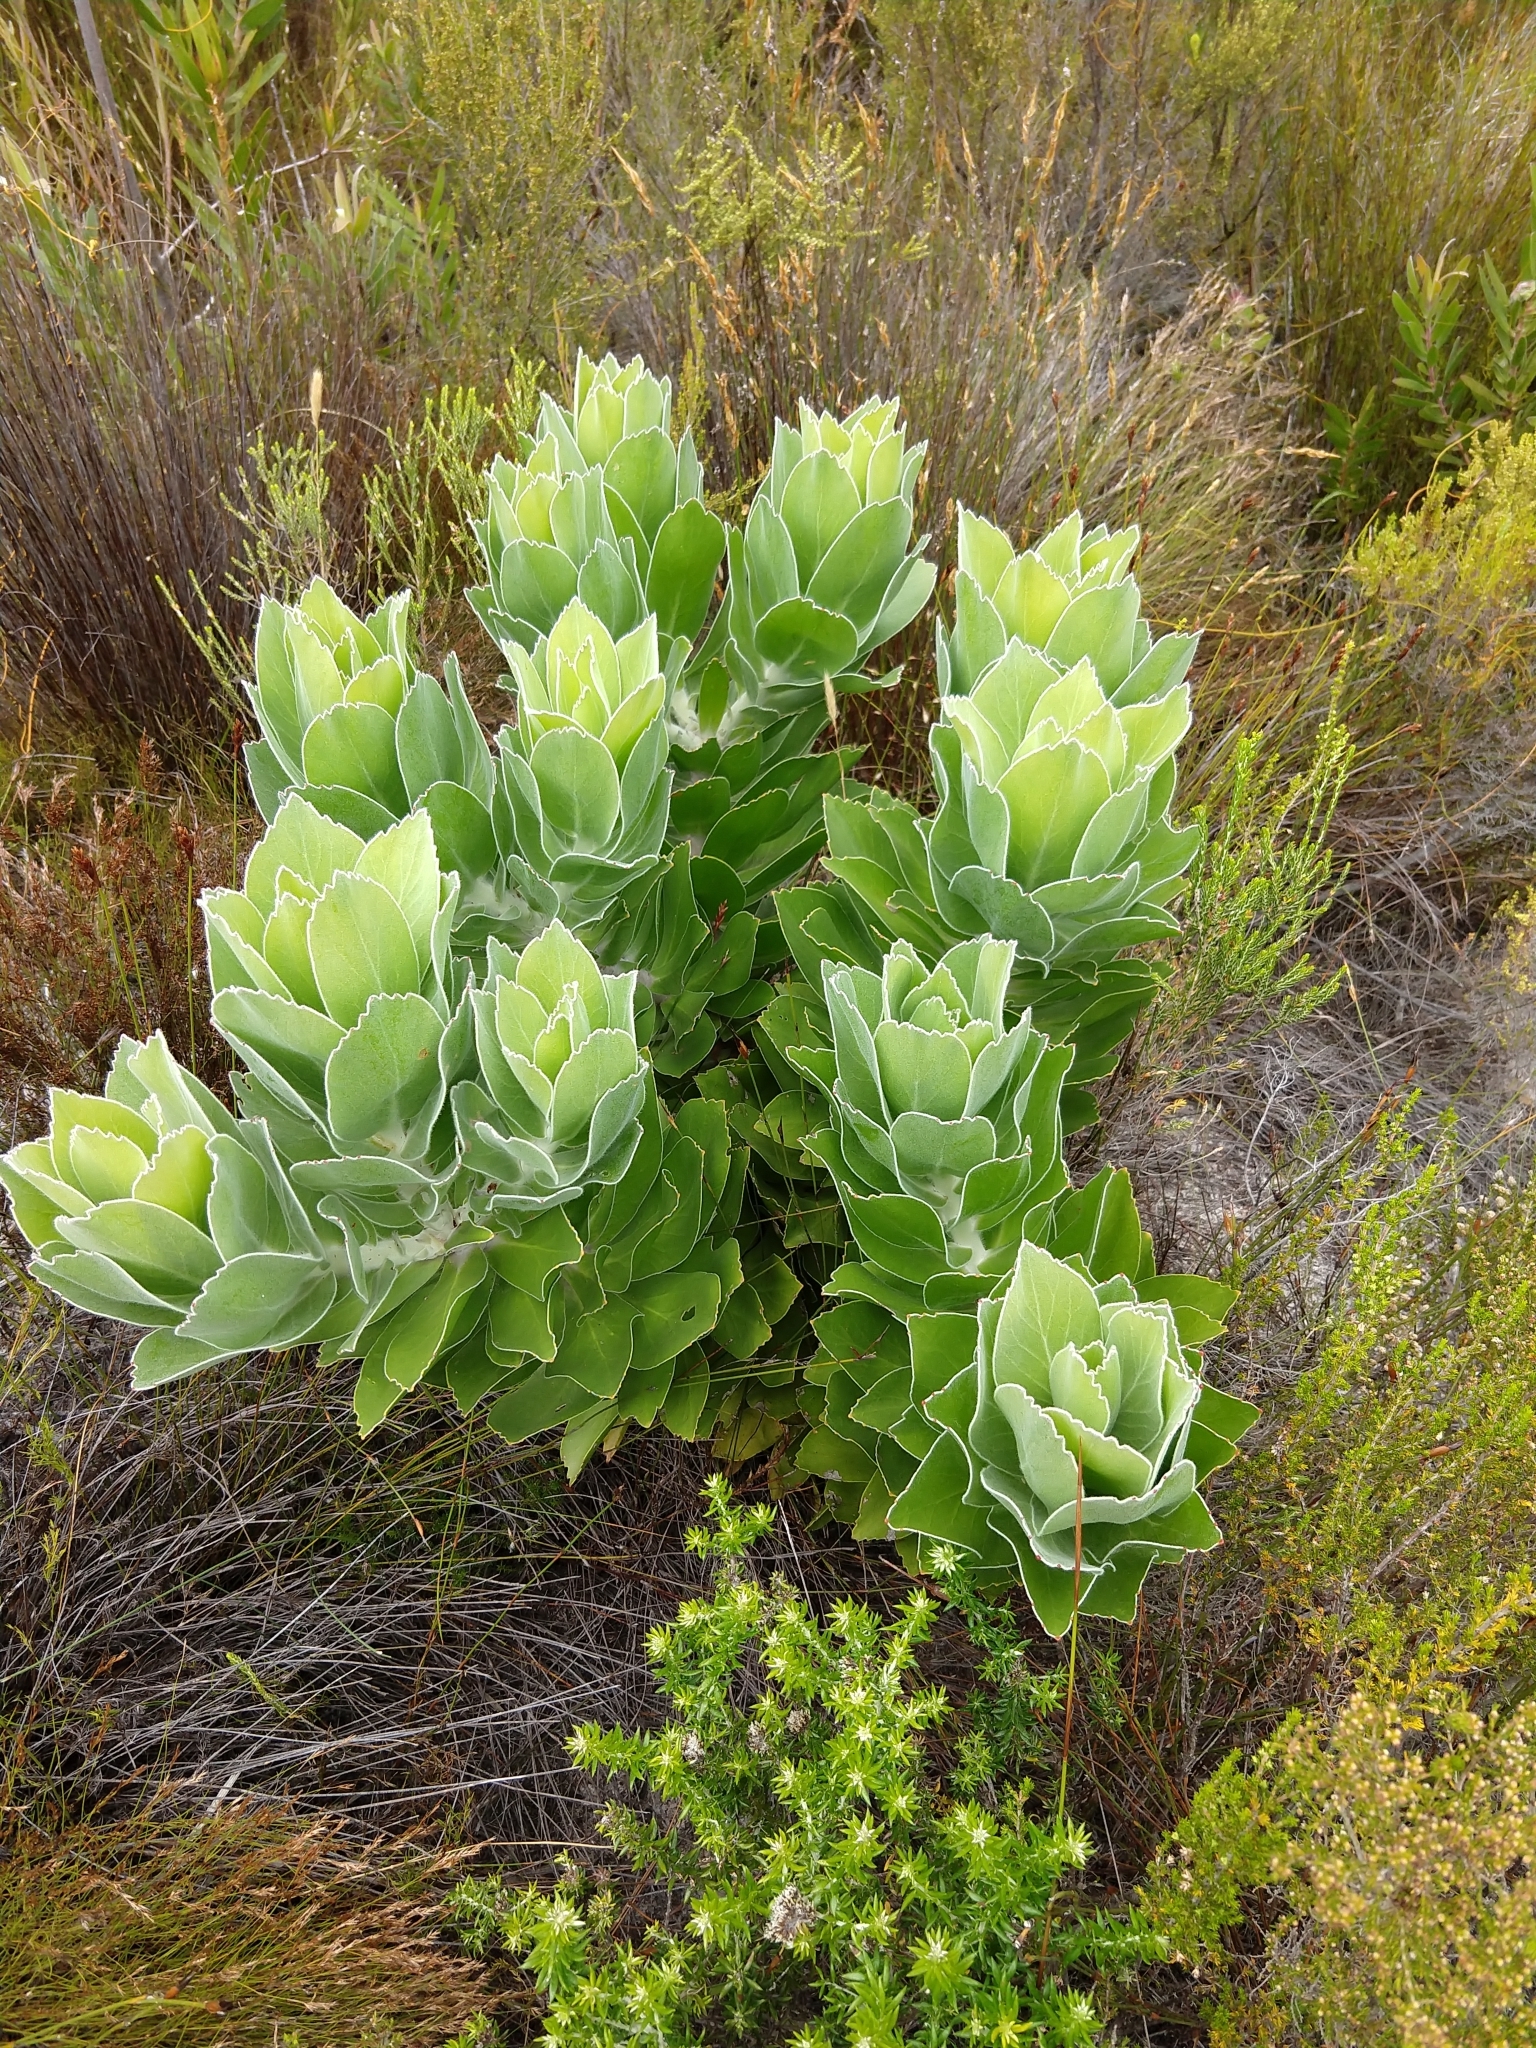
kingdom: Plantae
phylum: Tracheophyta
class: Magnoliopsida
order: Proteales
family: Proteaceae
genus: Leucospermum
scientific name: Leucospermum conocarpodendron
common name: Tree pincushion
